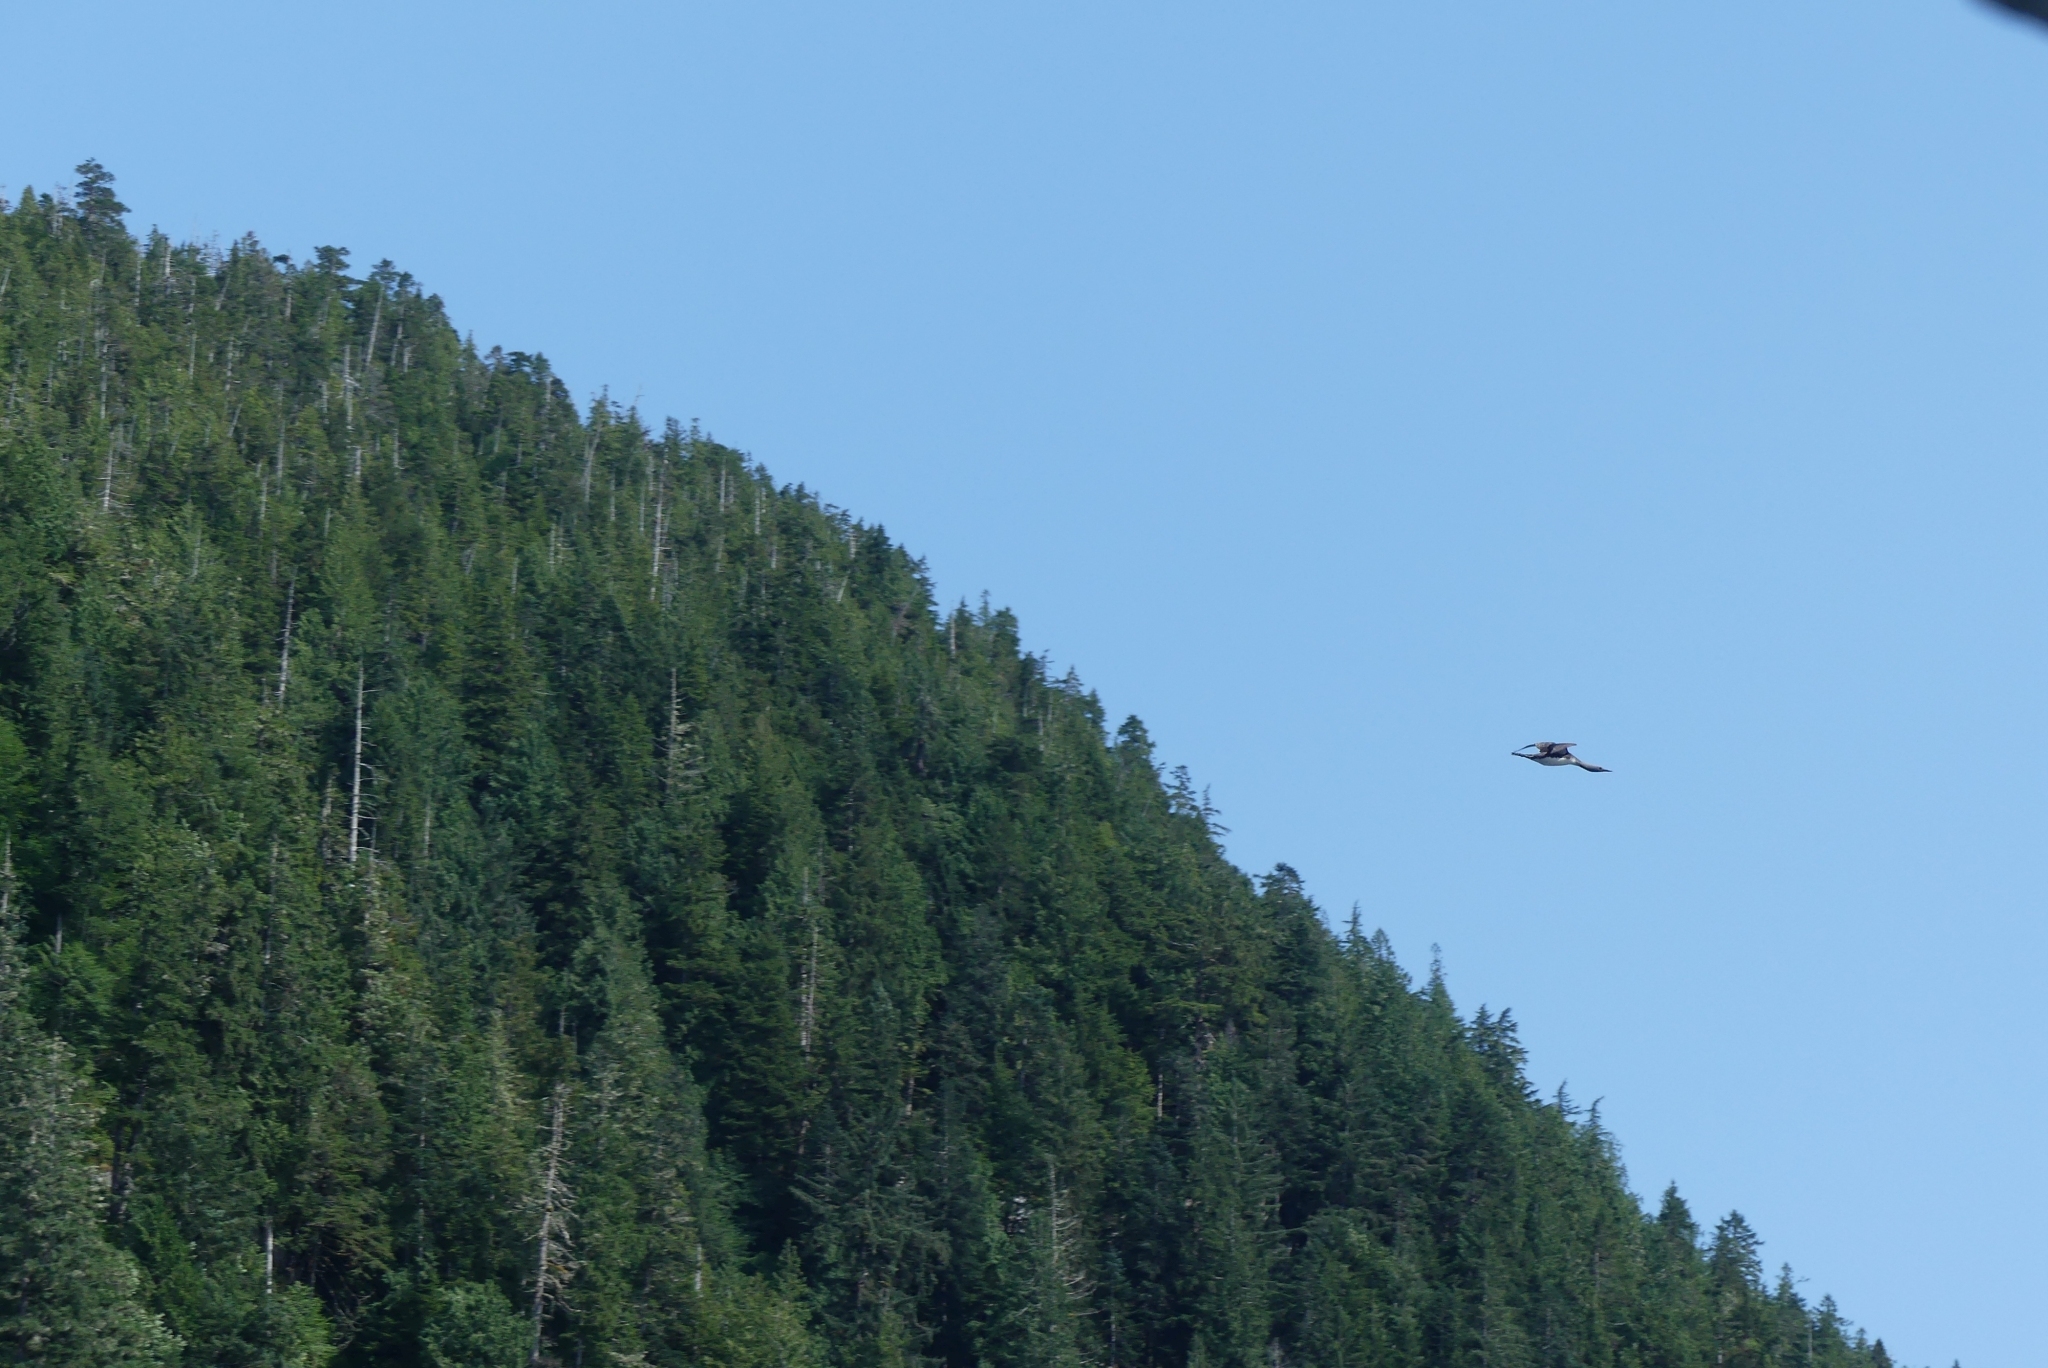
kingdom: Animalia
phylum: Chordata
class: Aves
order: Gaviiformes
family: Gaviidae
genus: Gavia
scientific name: Gavia stellata
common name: Red-throated loon
